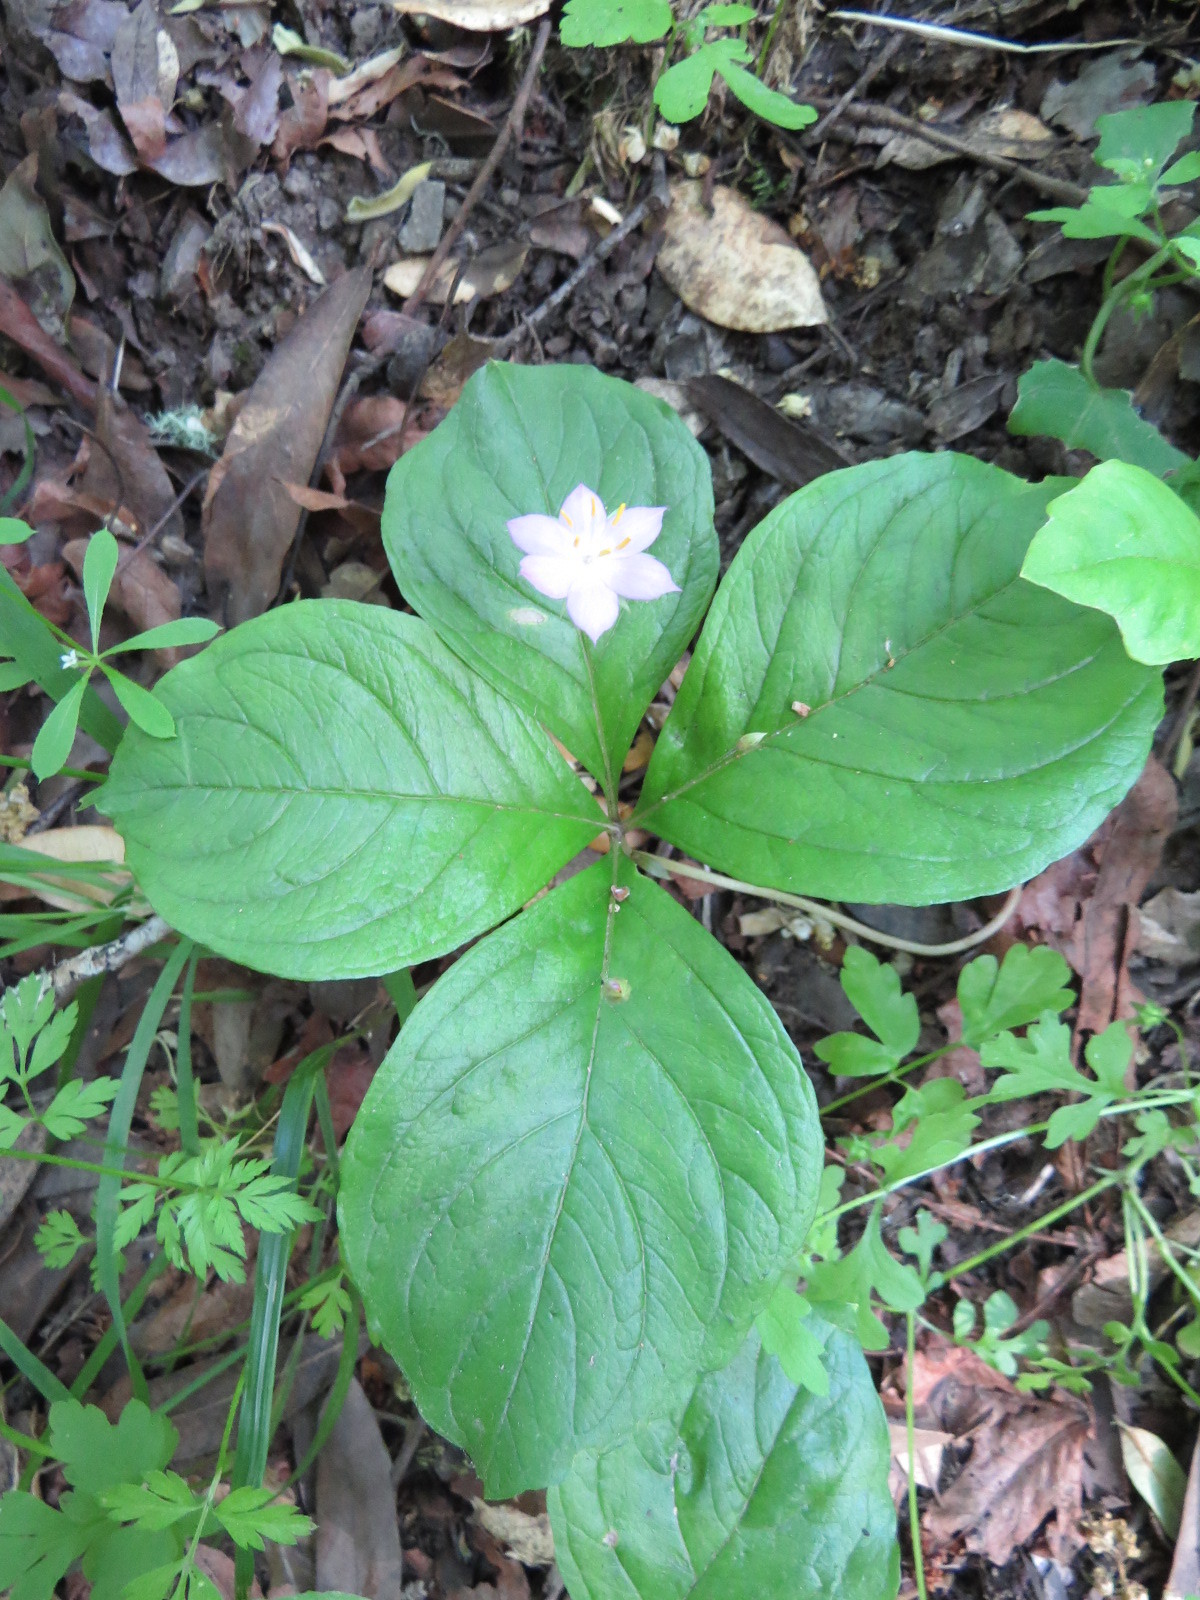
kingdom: Plantae
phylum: Tracheophyta
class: Magnoliopsida
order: Ericales
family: Primulaceae
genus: Lysimachia
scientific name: Lysimachia latifolia
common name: Pacific starflower
